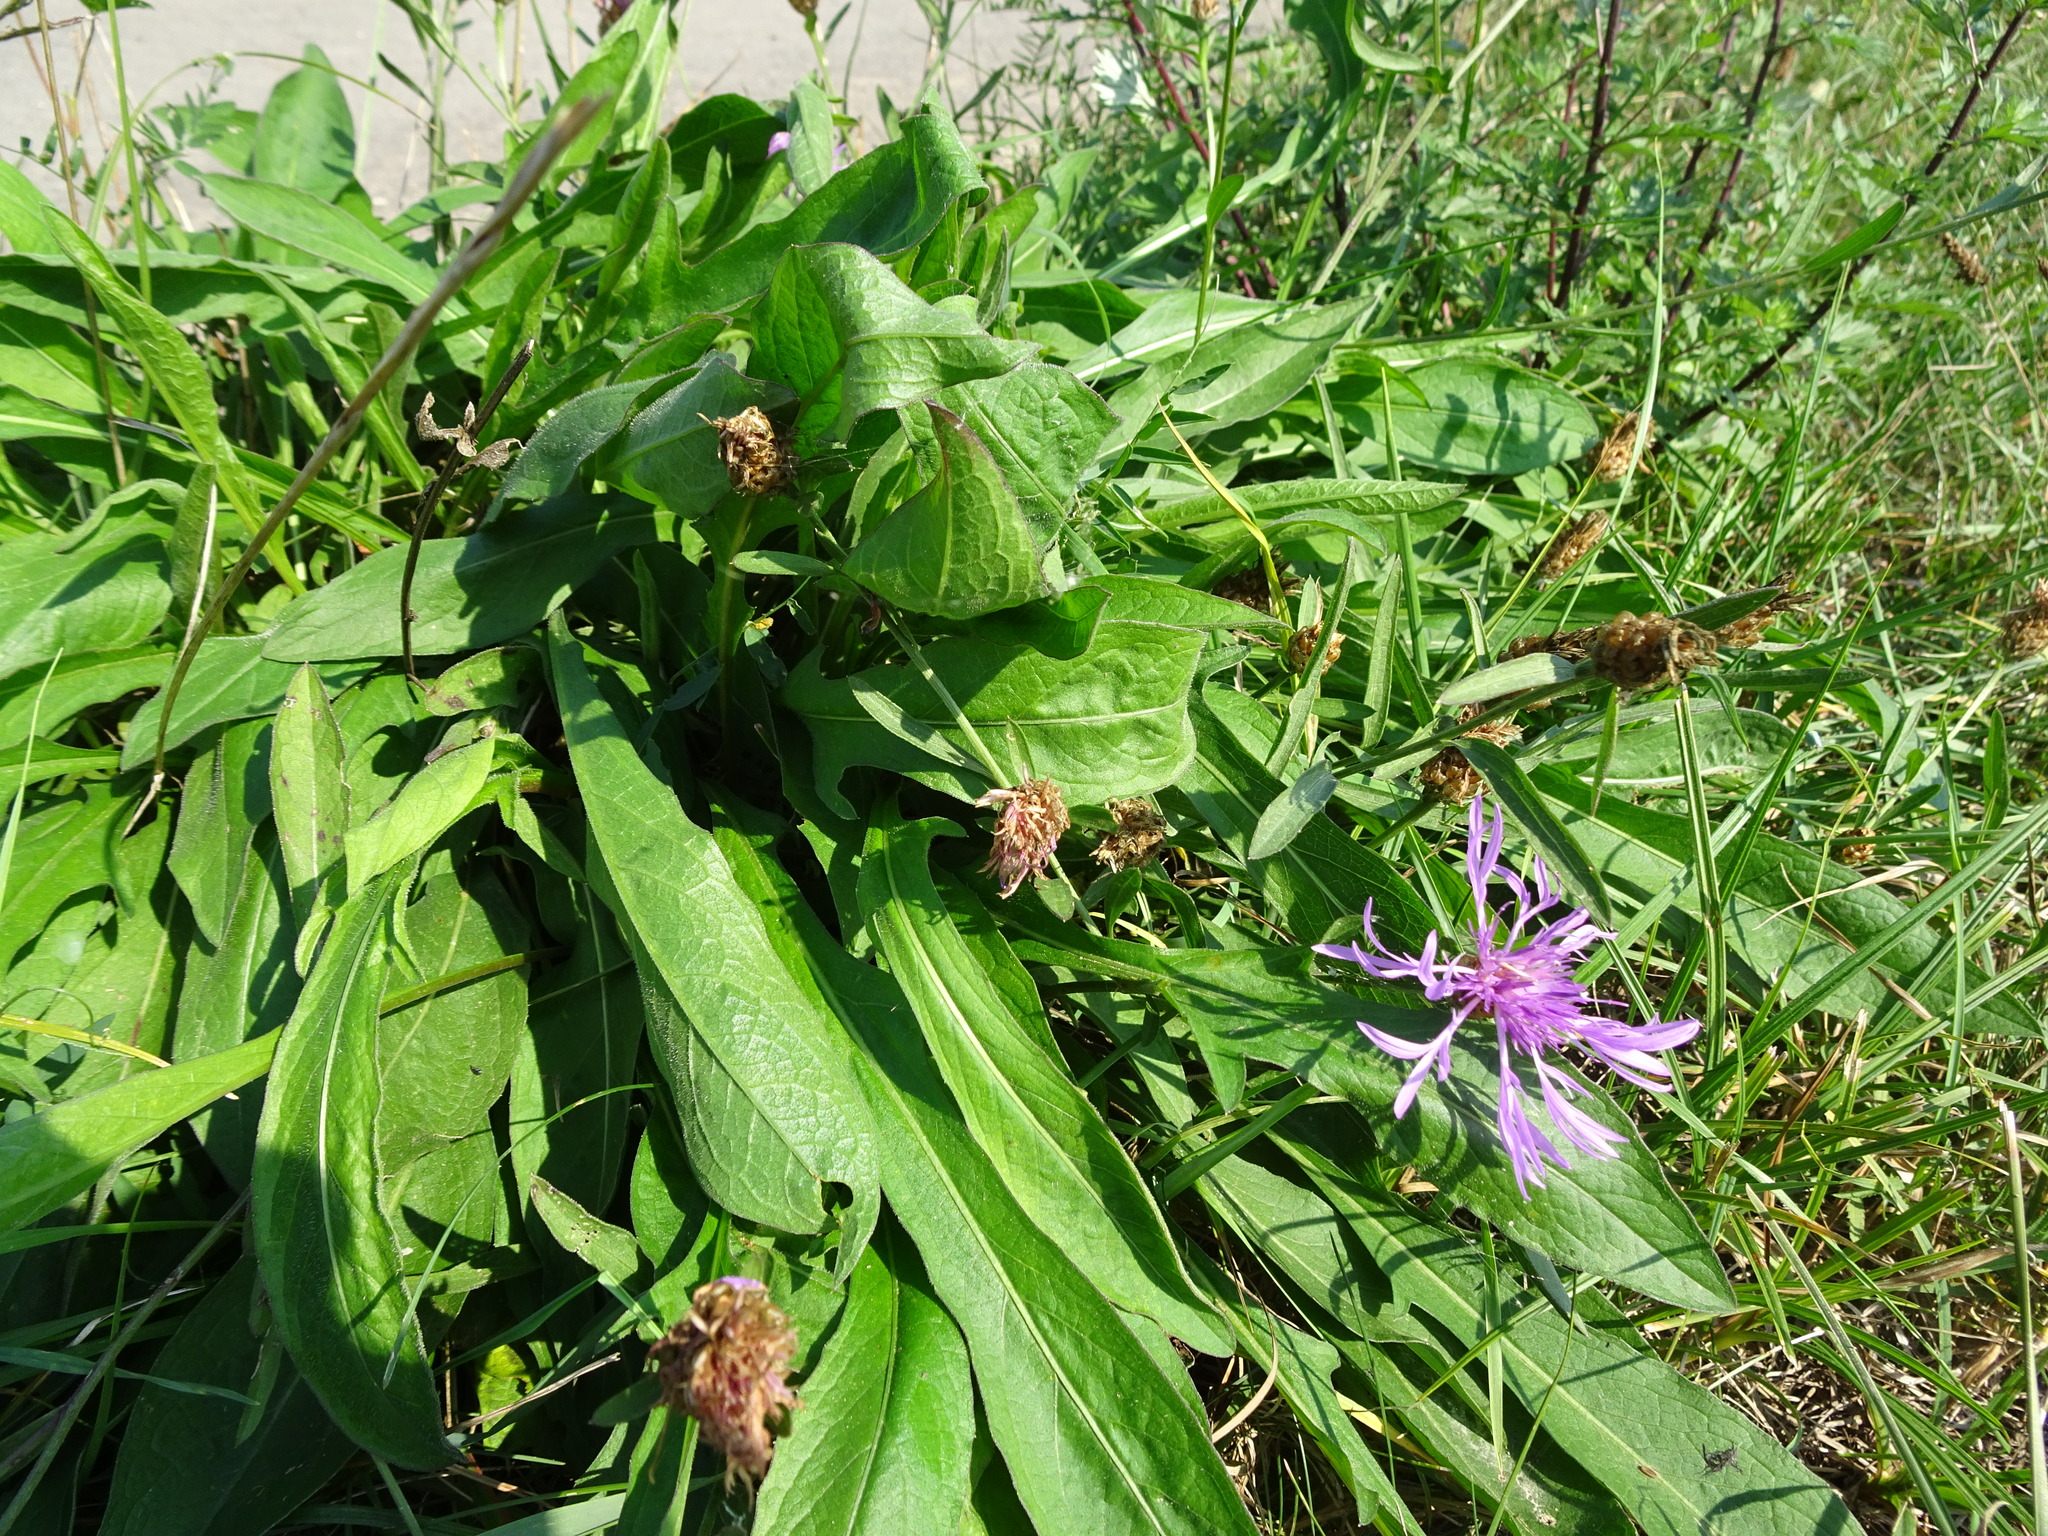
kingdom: Plantae
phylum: Tracheophyta
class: Magnoliopsida
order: Asterales
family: Asteraceae
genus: Centaurea
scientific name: Centaurea jacea
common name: Brown knapweed
